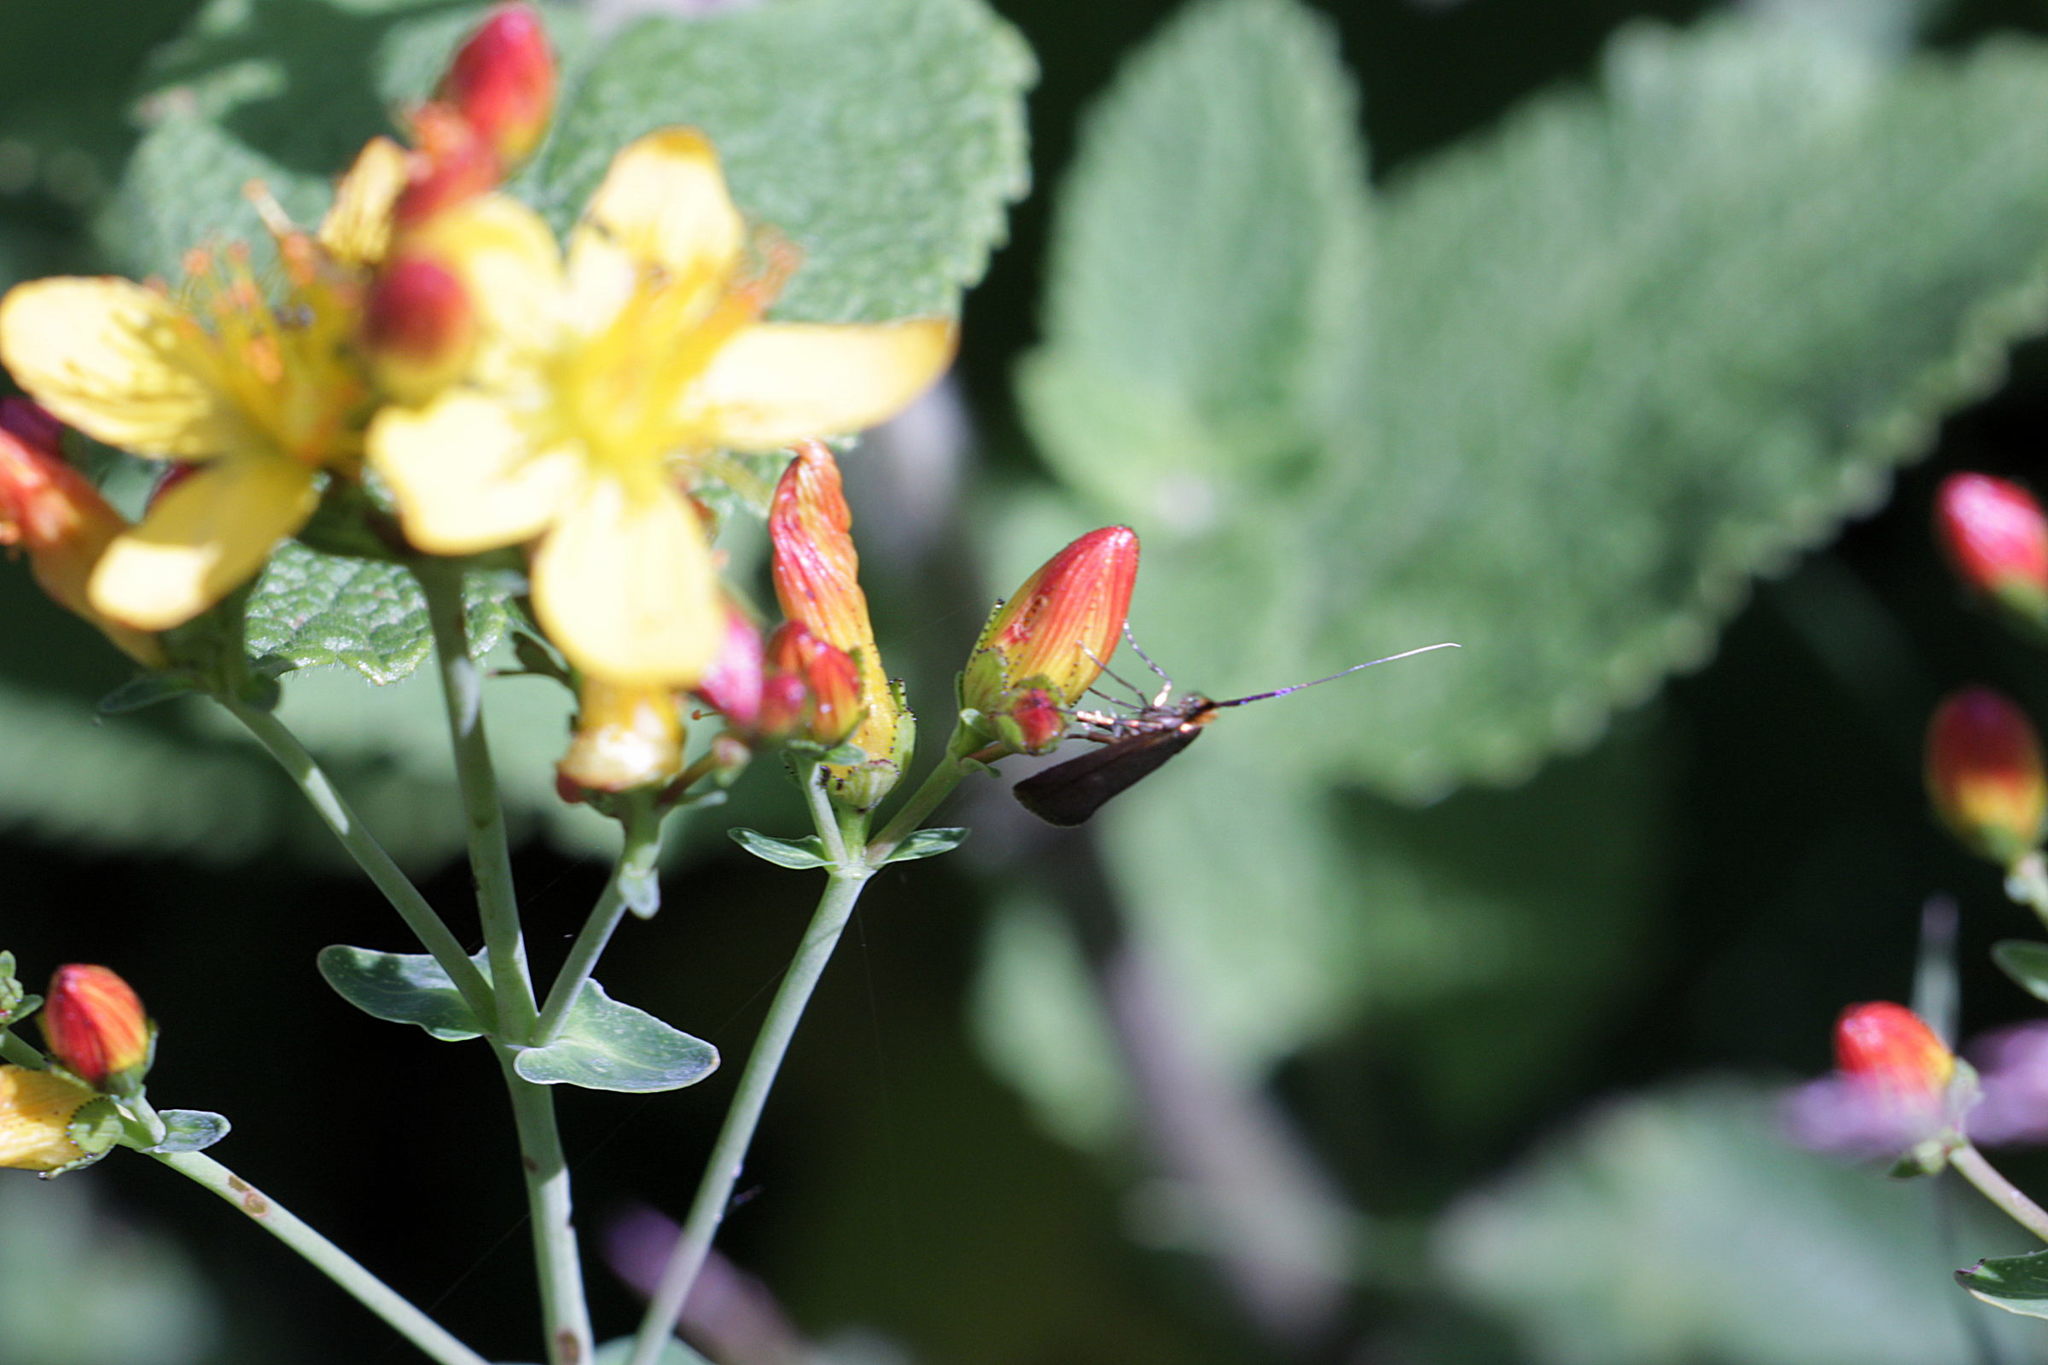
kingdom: Animalia
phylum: Arthropoda
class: Insecta
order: Lepidoptera
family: Adelidae
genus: Adela
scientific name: Adela violella
